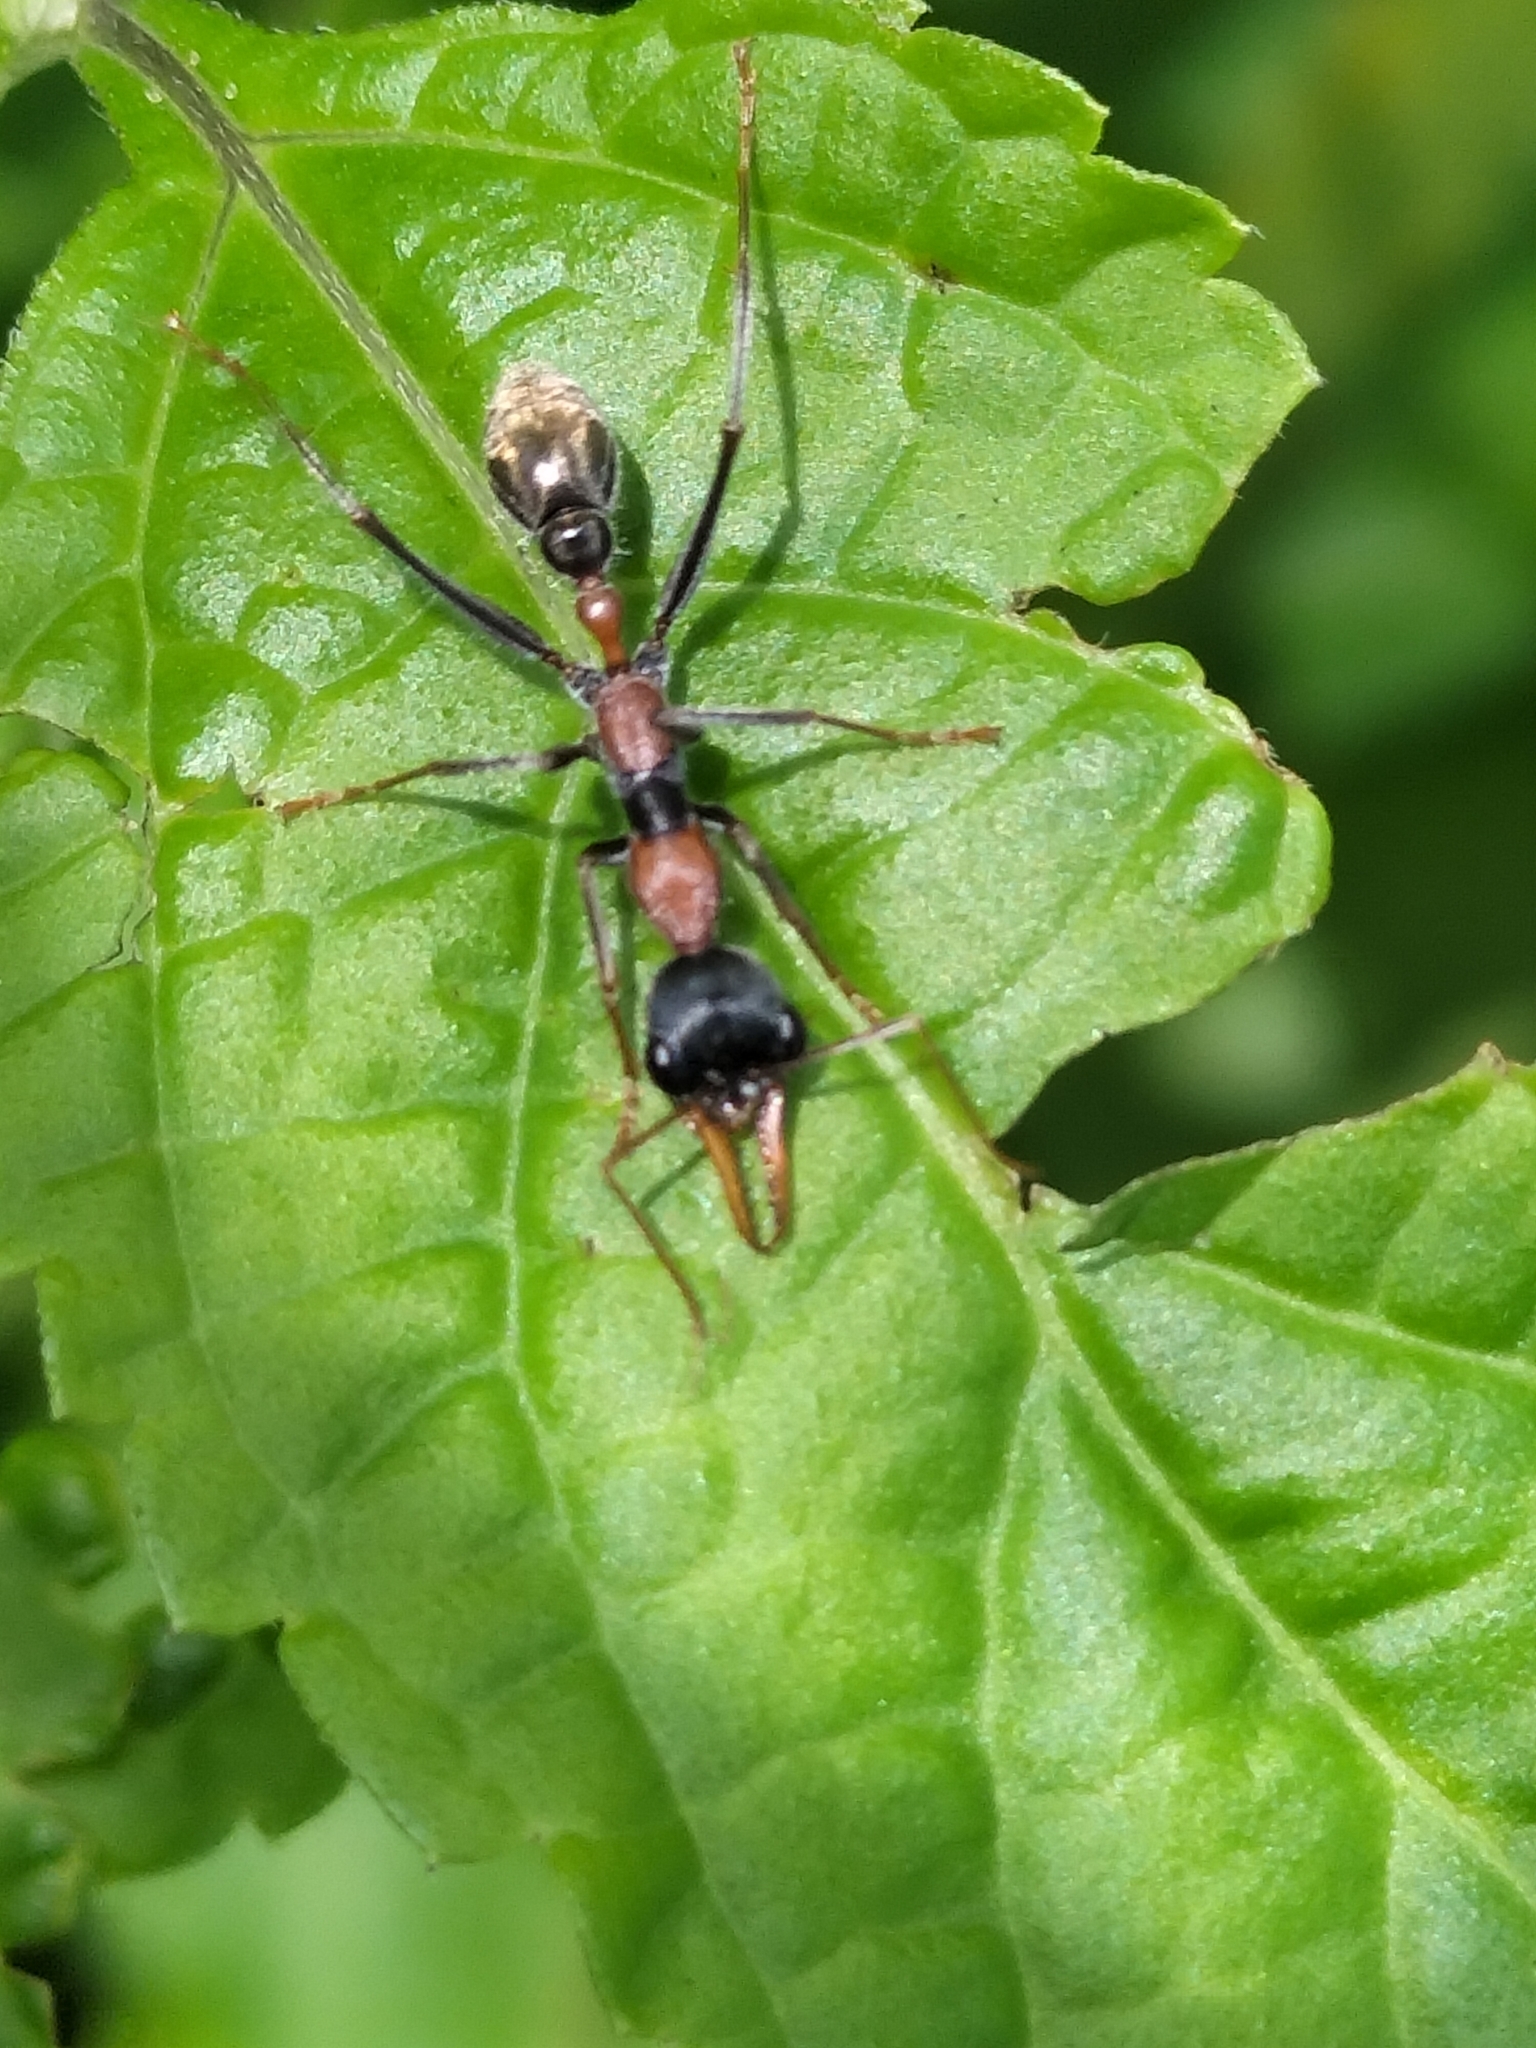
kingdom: Animalia
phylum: Arthropoda
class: Insecta
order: Hymenoptera
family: Formicidae
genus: Myrmecia
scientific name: Myrmecia nigrocincta
